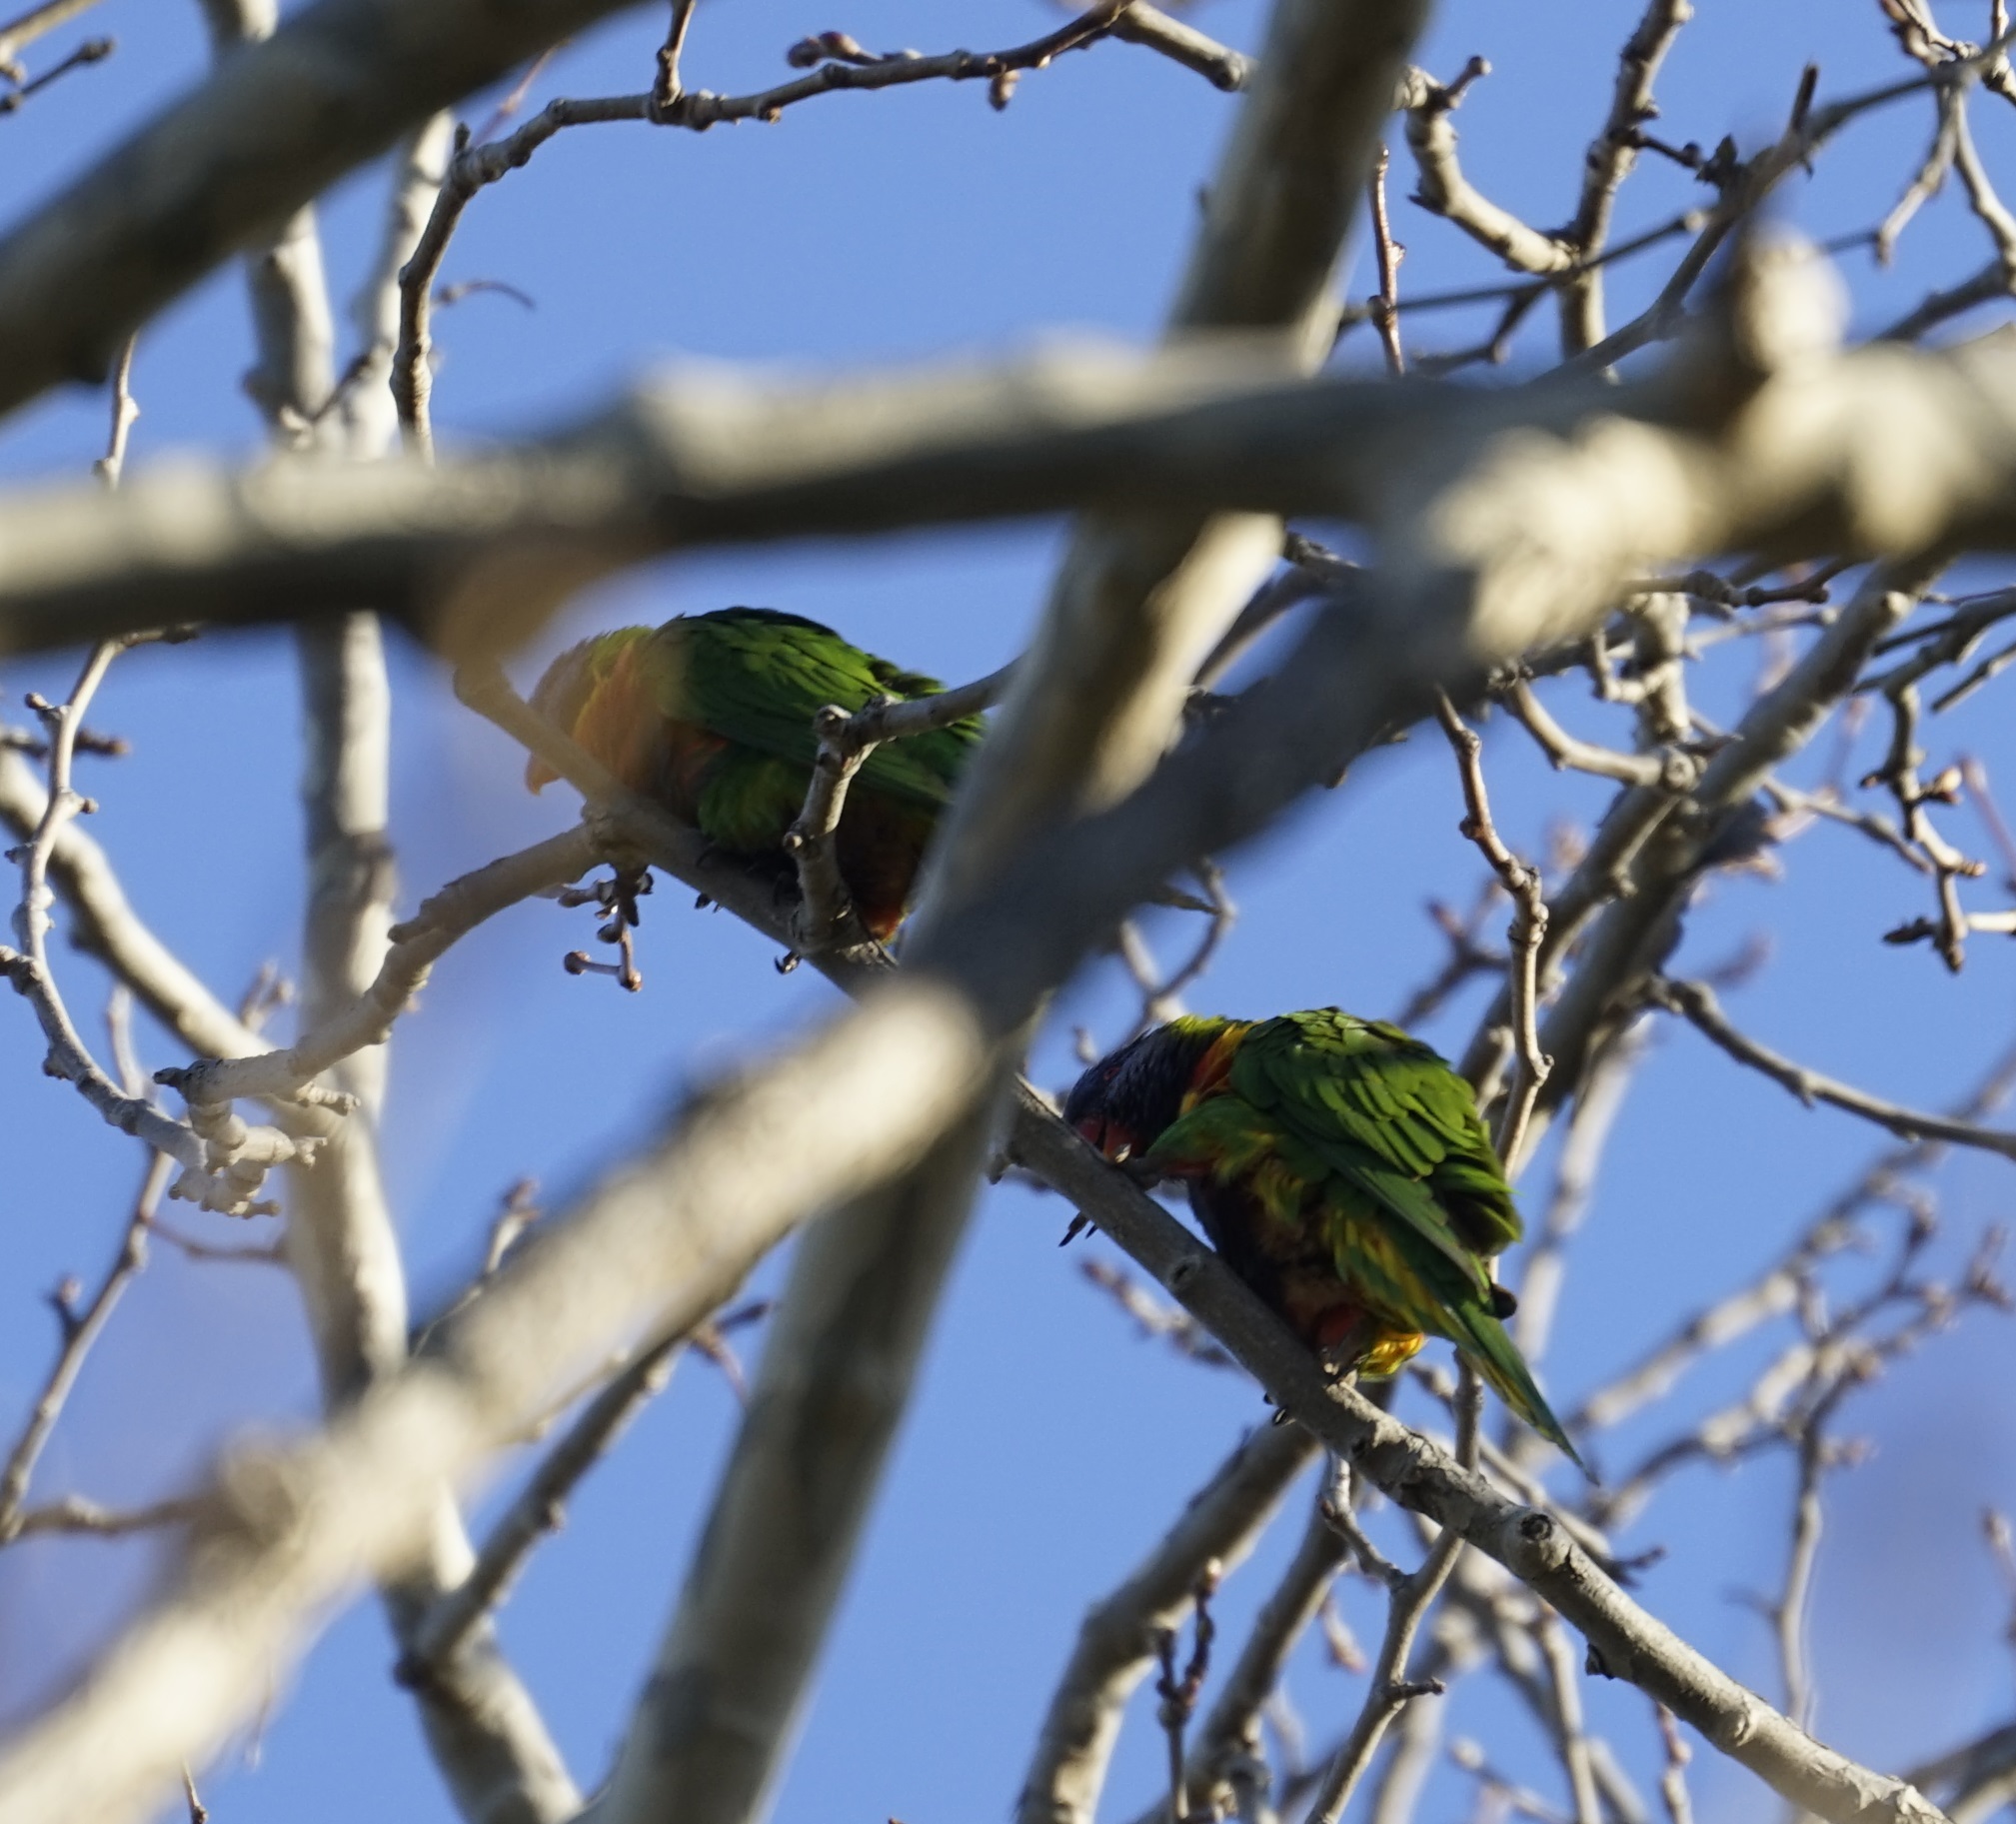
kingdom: Animalia
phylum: Chordata
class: Aves
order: Psittaciformes
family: Psittacidae
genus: Trichoglossus
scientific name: Trichoglossus haematodus
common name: Coconut lorikeet
